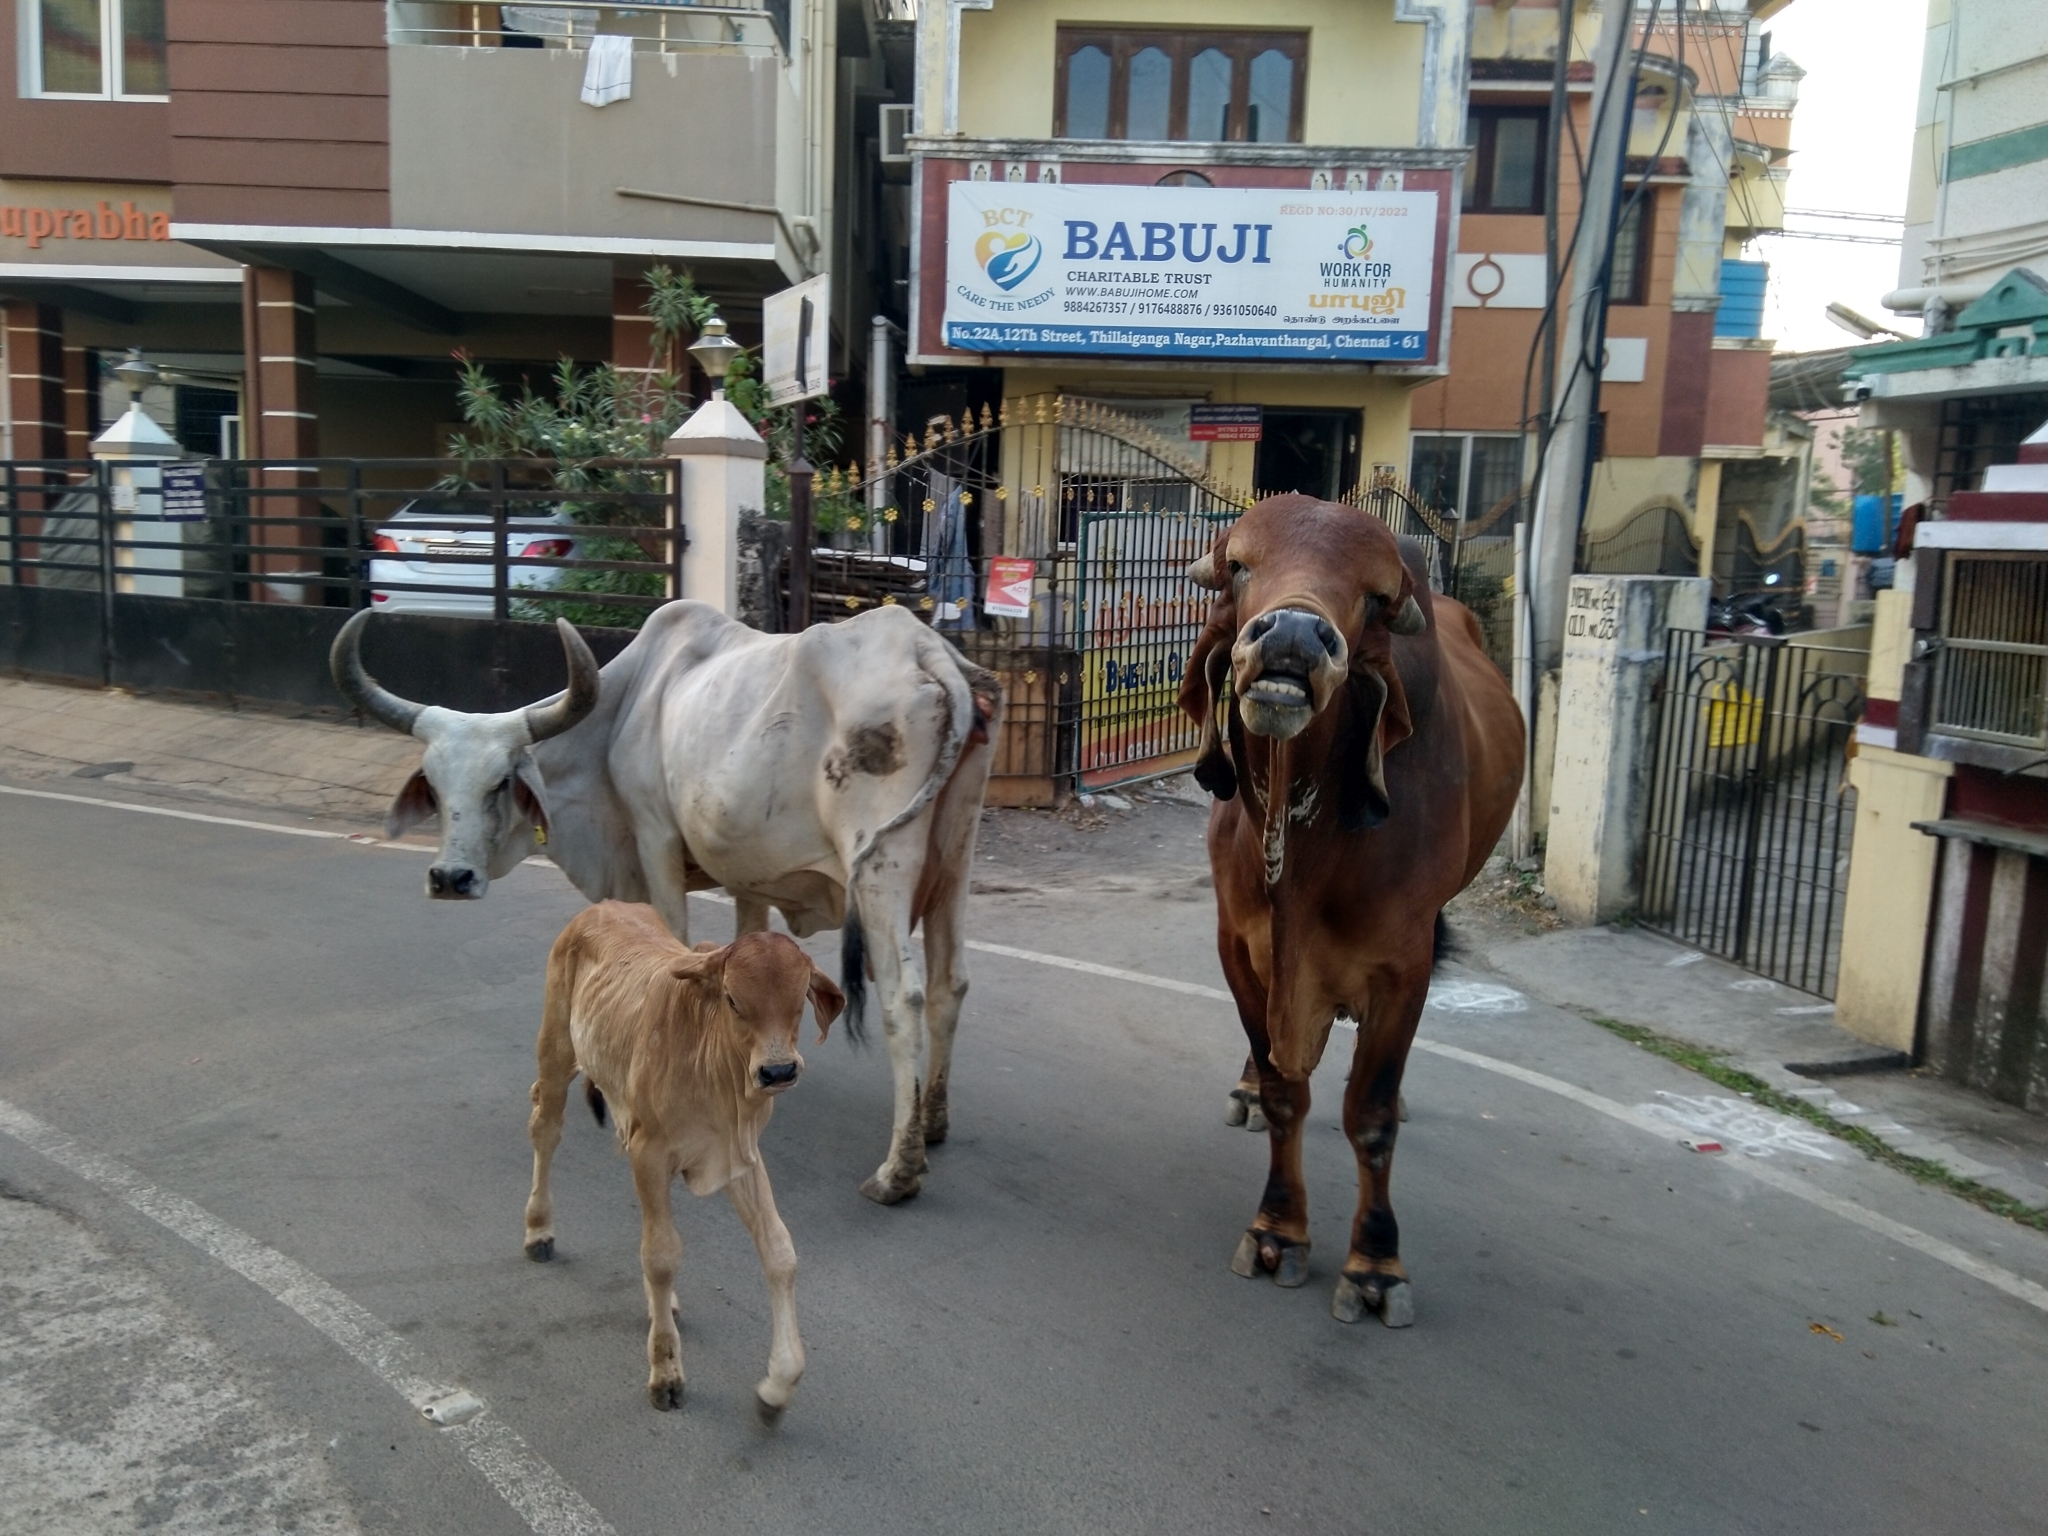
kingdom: Animalia
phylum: Chordata
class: Mammalia
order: Artiodactyla
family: Bovidae
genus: Bos
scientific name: Bos taurus
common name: Domesticated cattle
